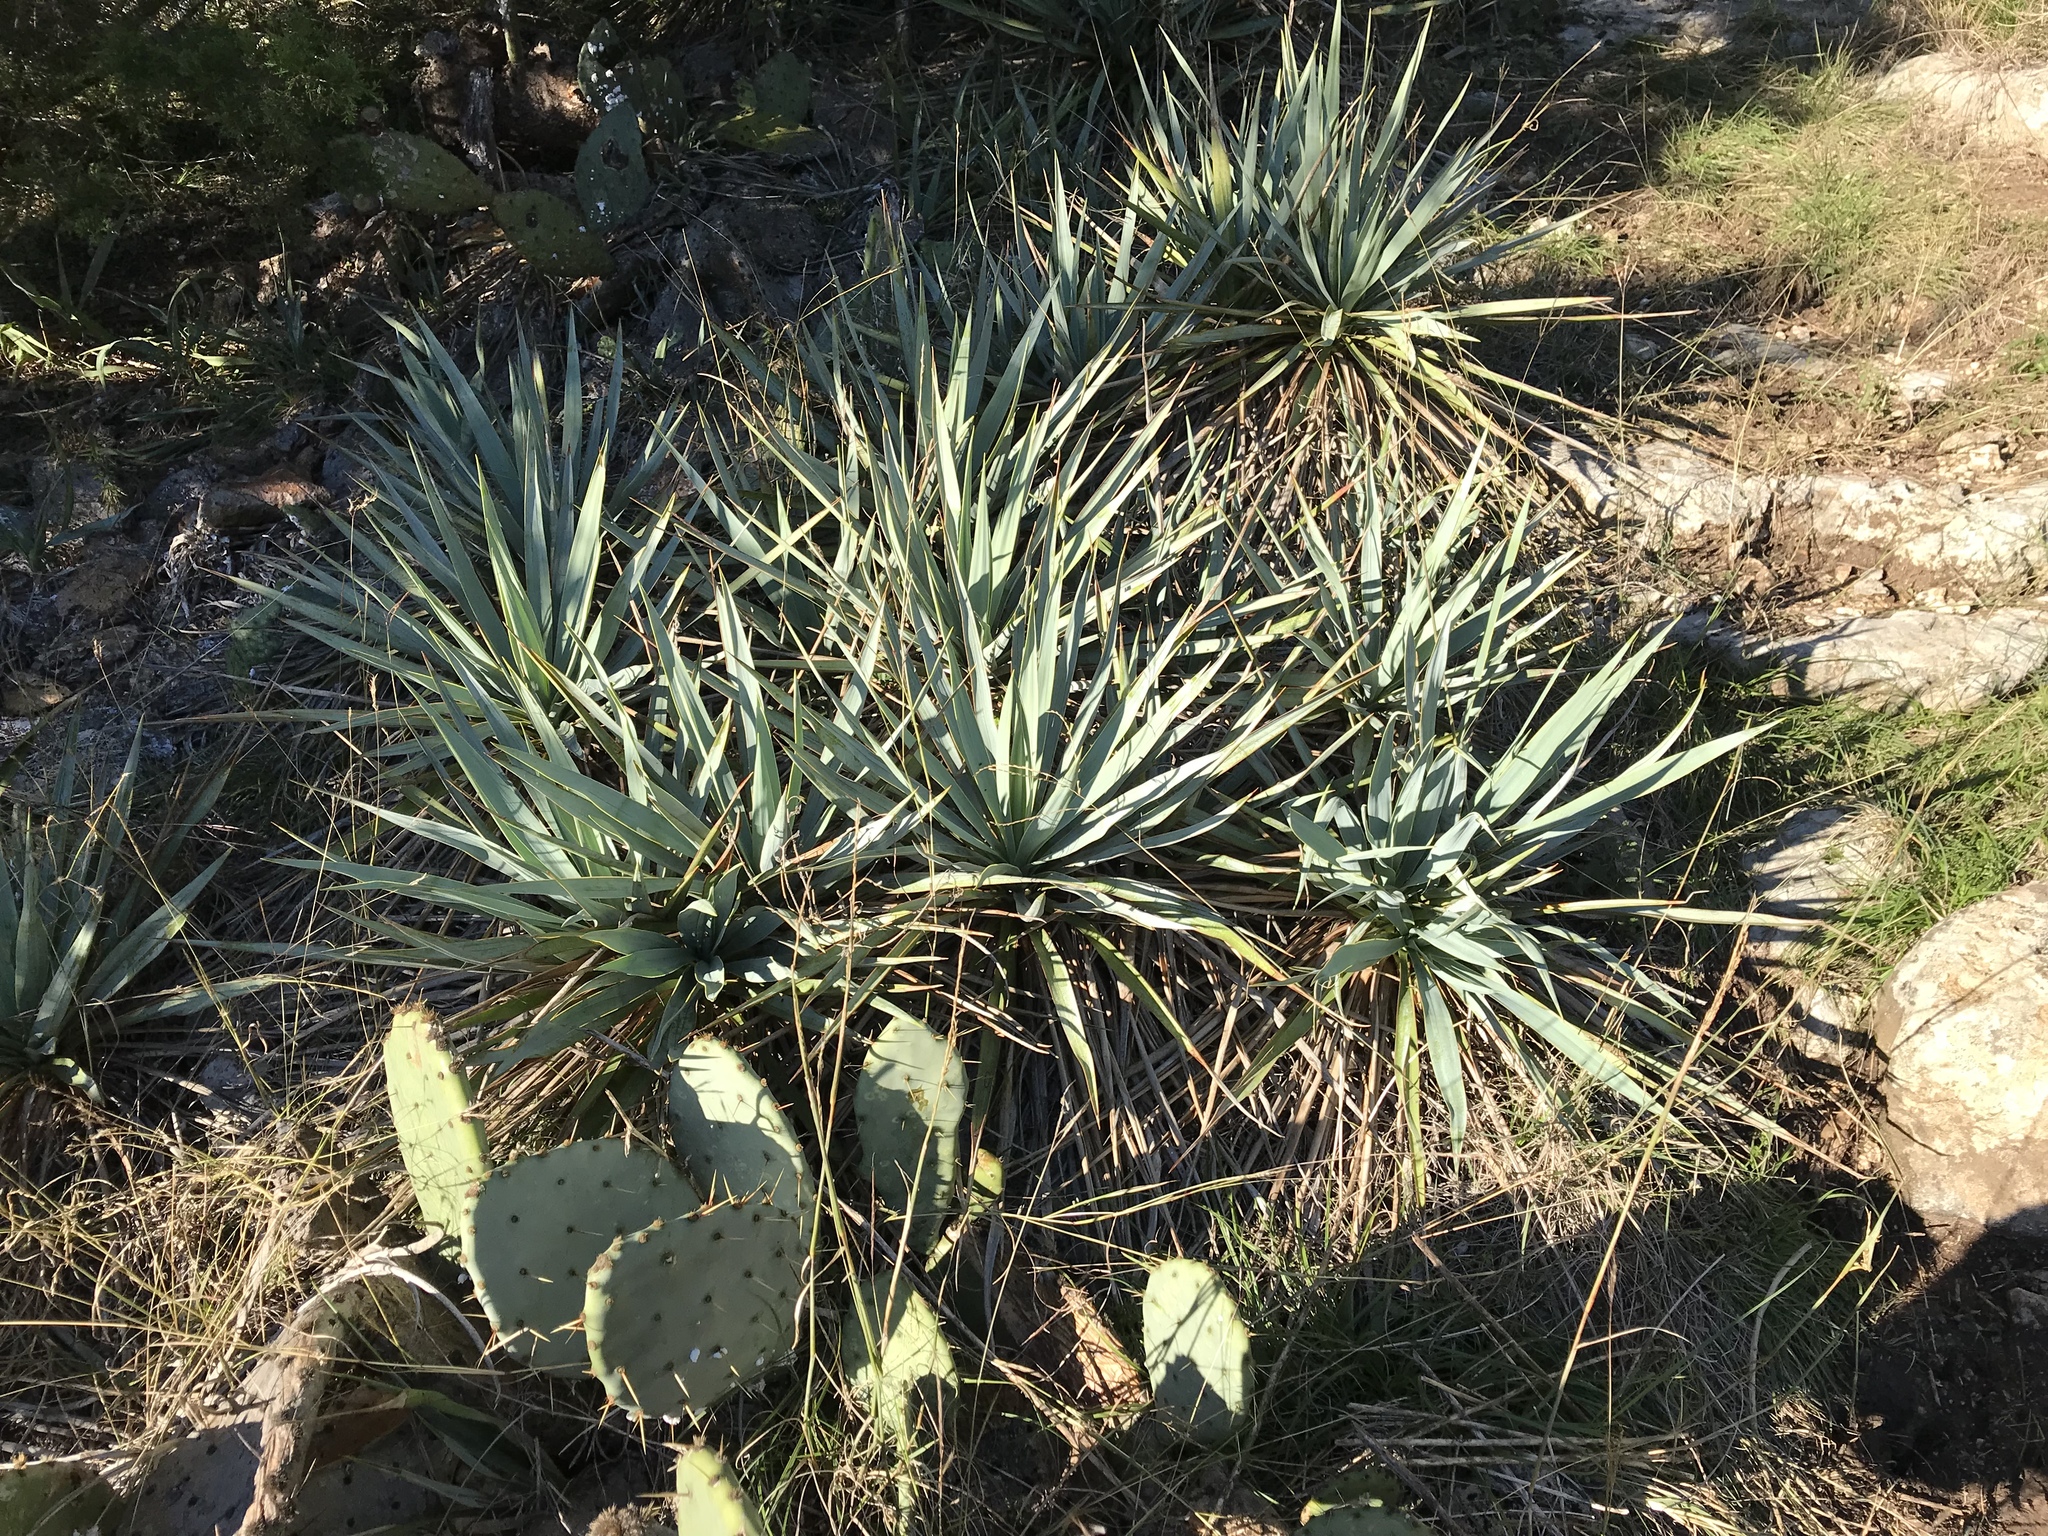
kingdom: Plantae
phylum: Tracheophyta
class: Liliopsida
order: Asparagales
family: Asparagaceae
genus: Yucca
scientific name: Yucca pallida
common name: Pale leaf yucca
